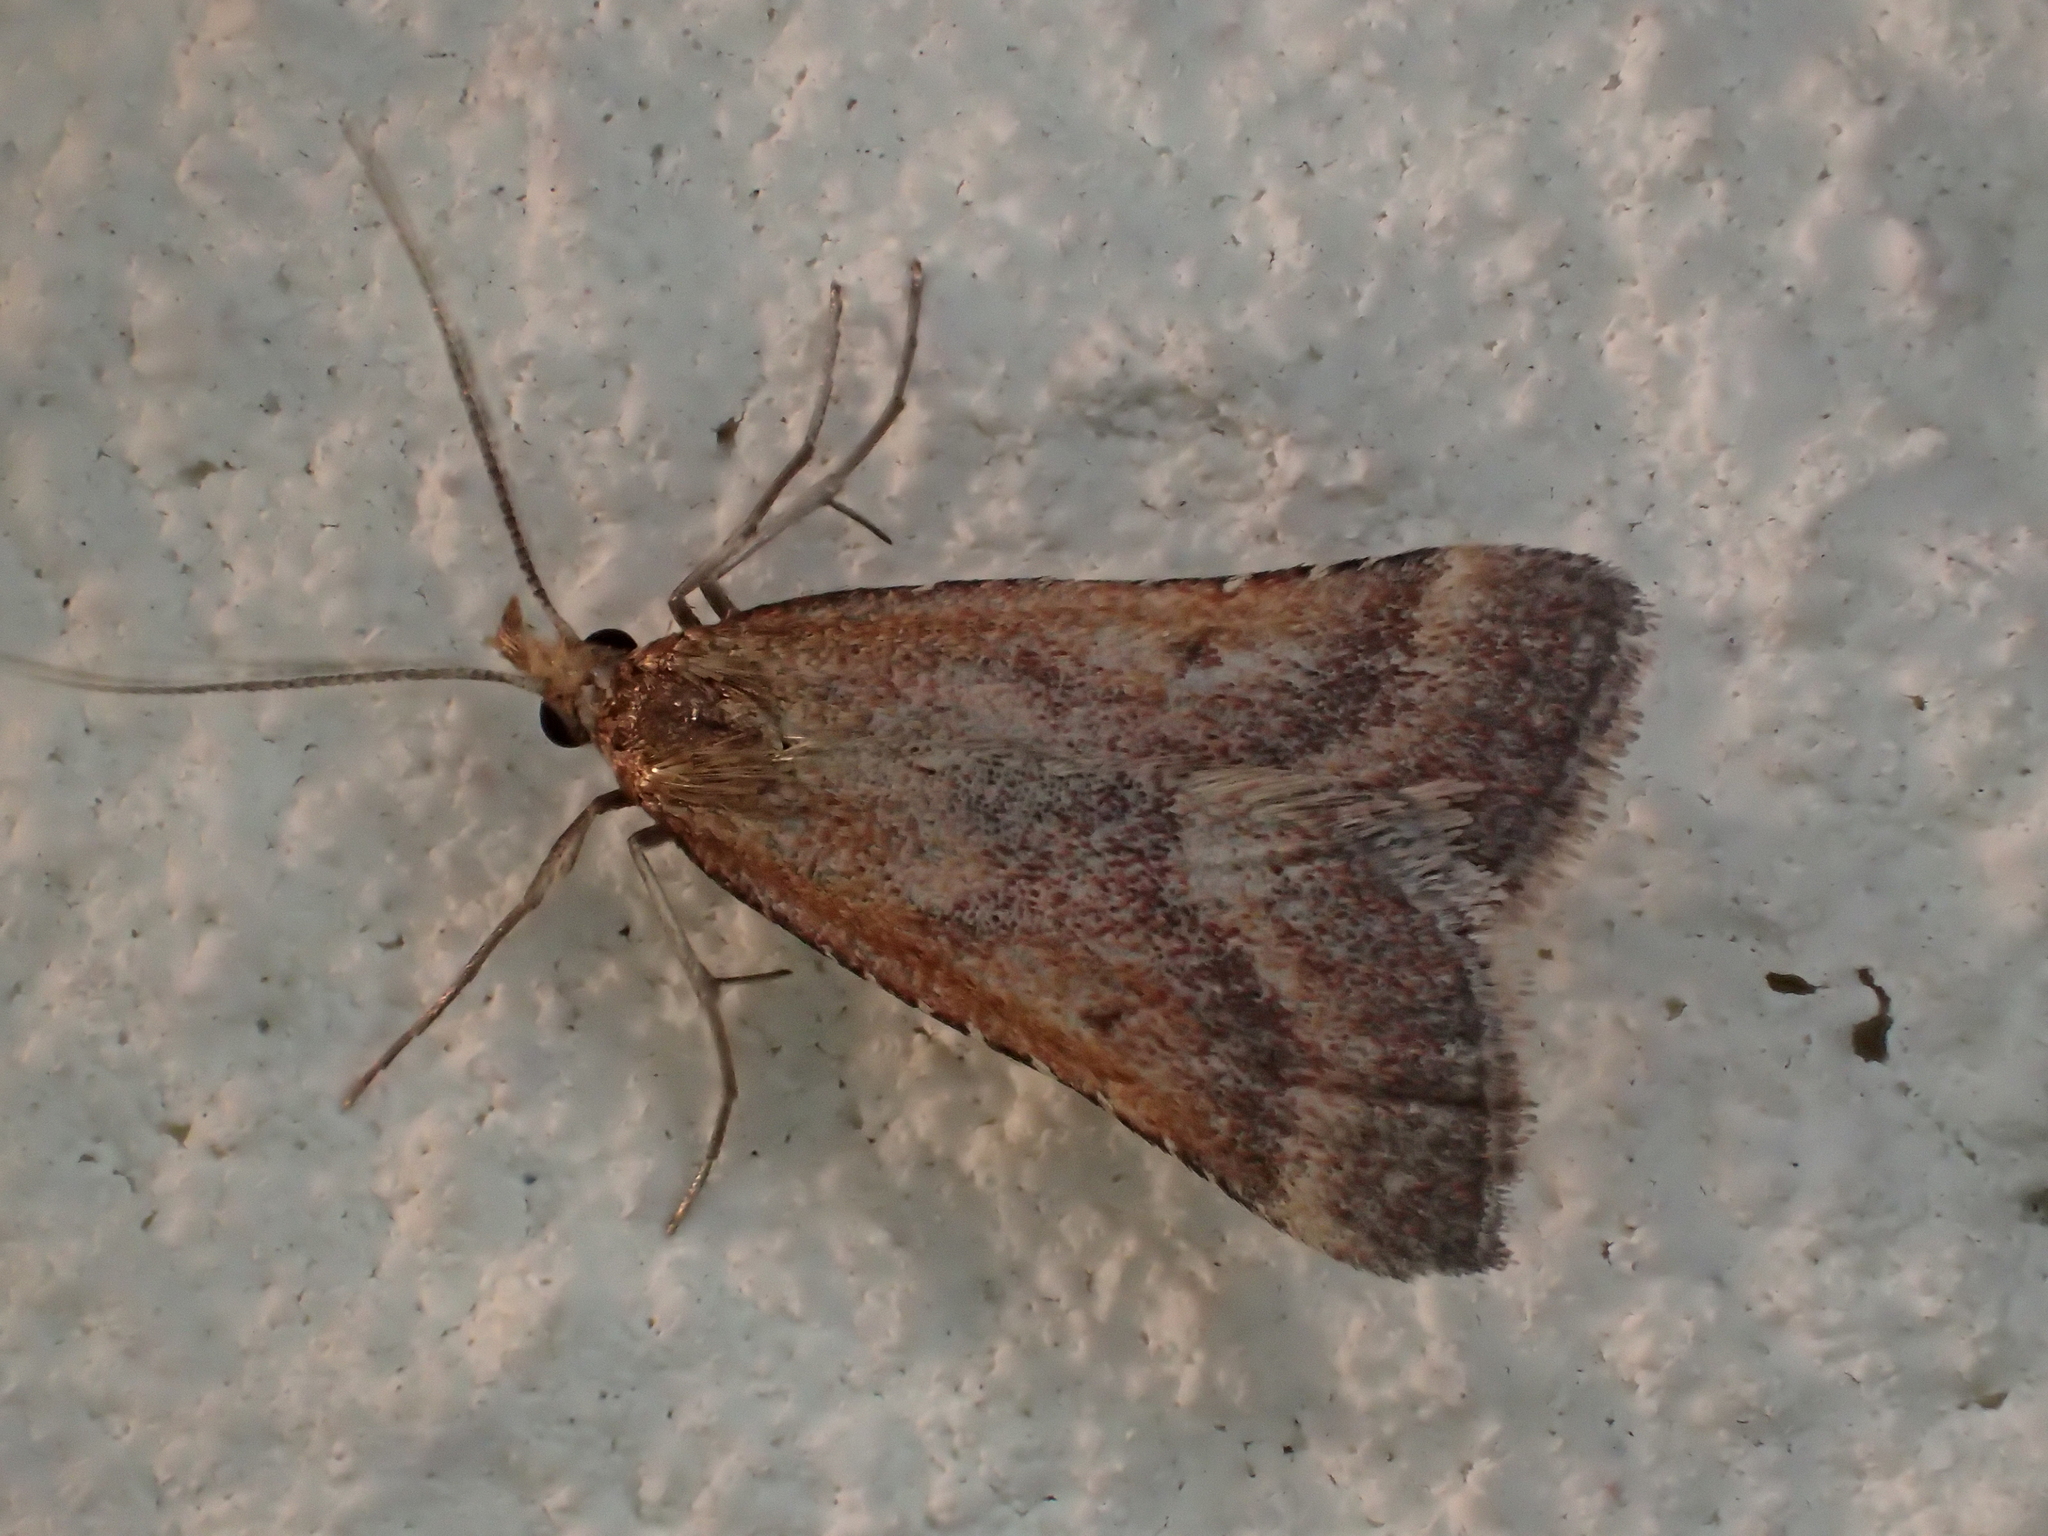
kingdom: Animalia
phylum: Arthropoda
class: Insecta
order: Lepidoptera
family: Pyralidae
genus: Synaphe
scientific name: Synaphe punctalis
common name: Long-legged tabby
